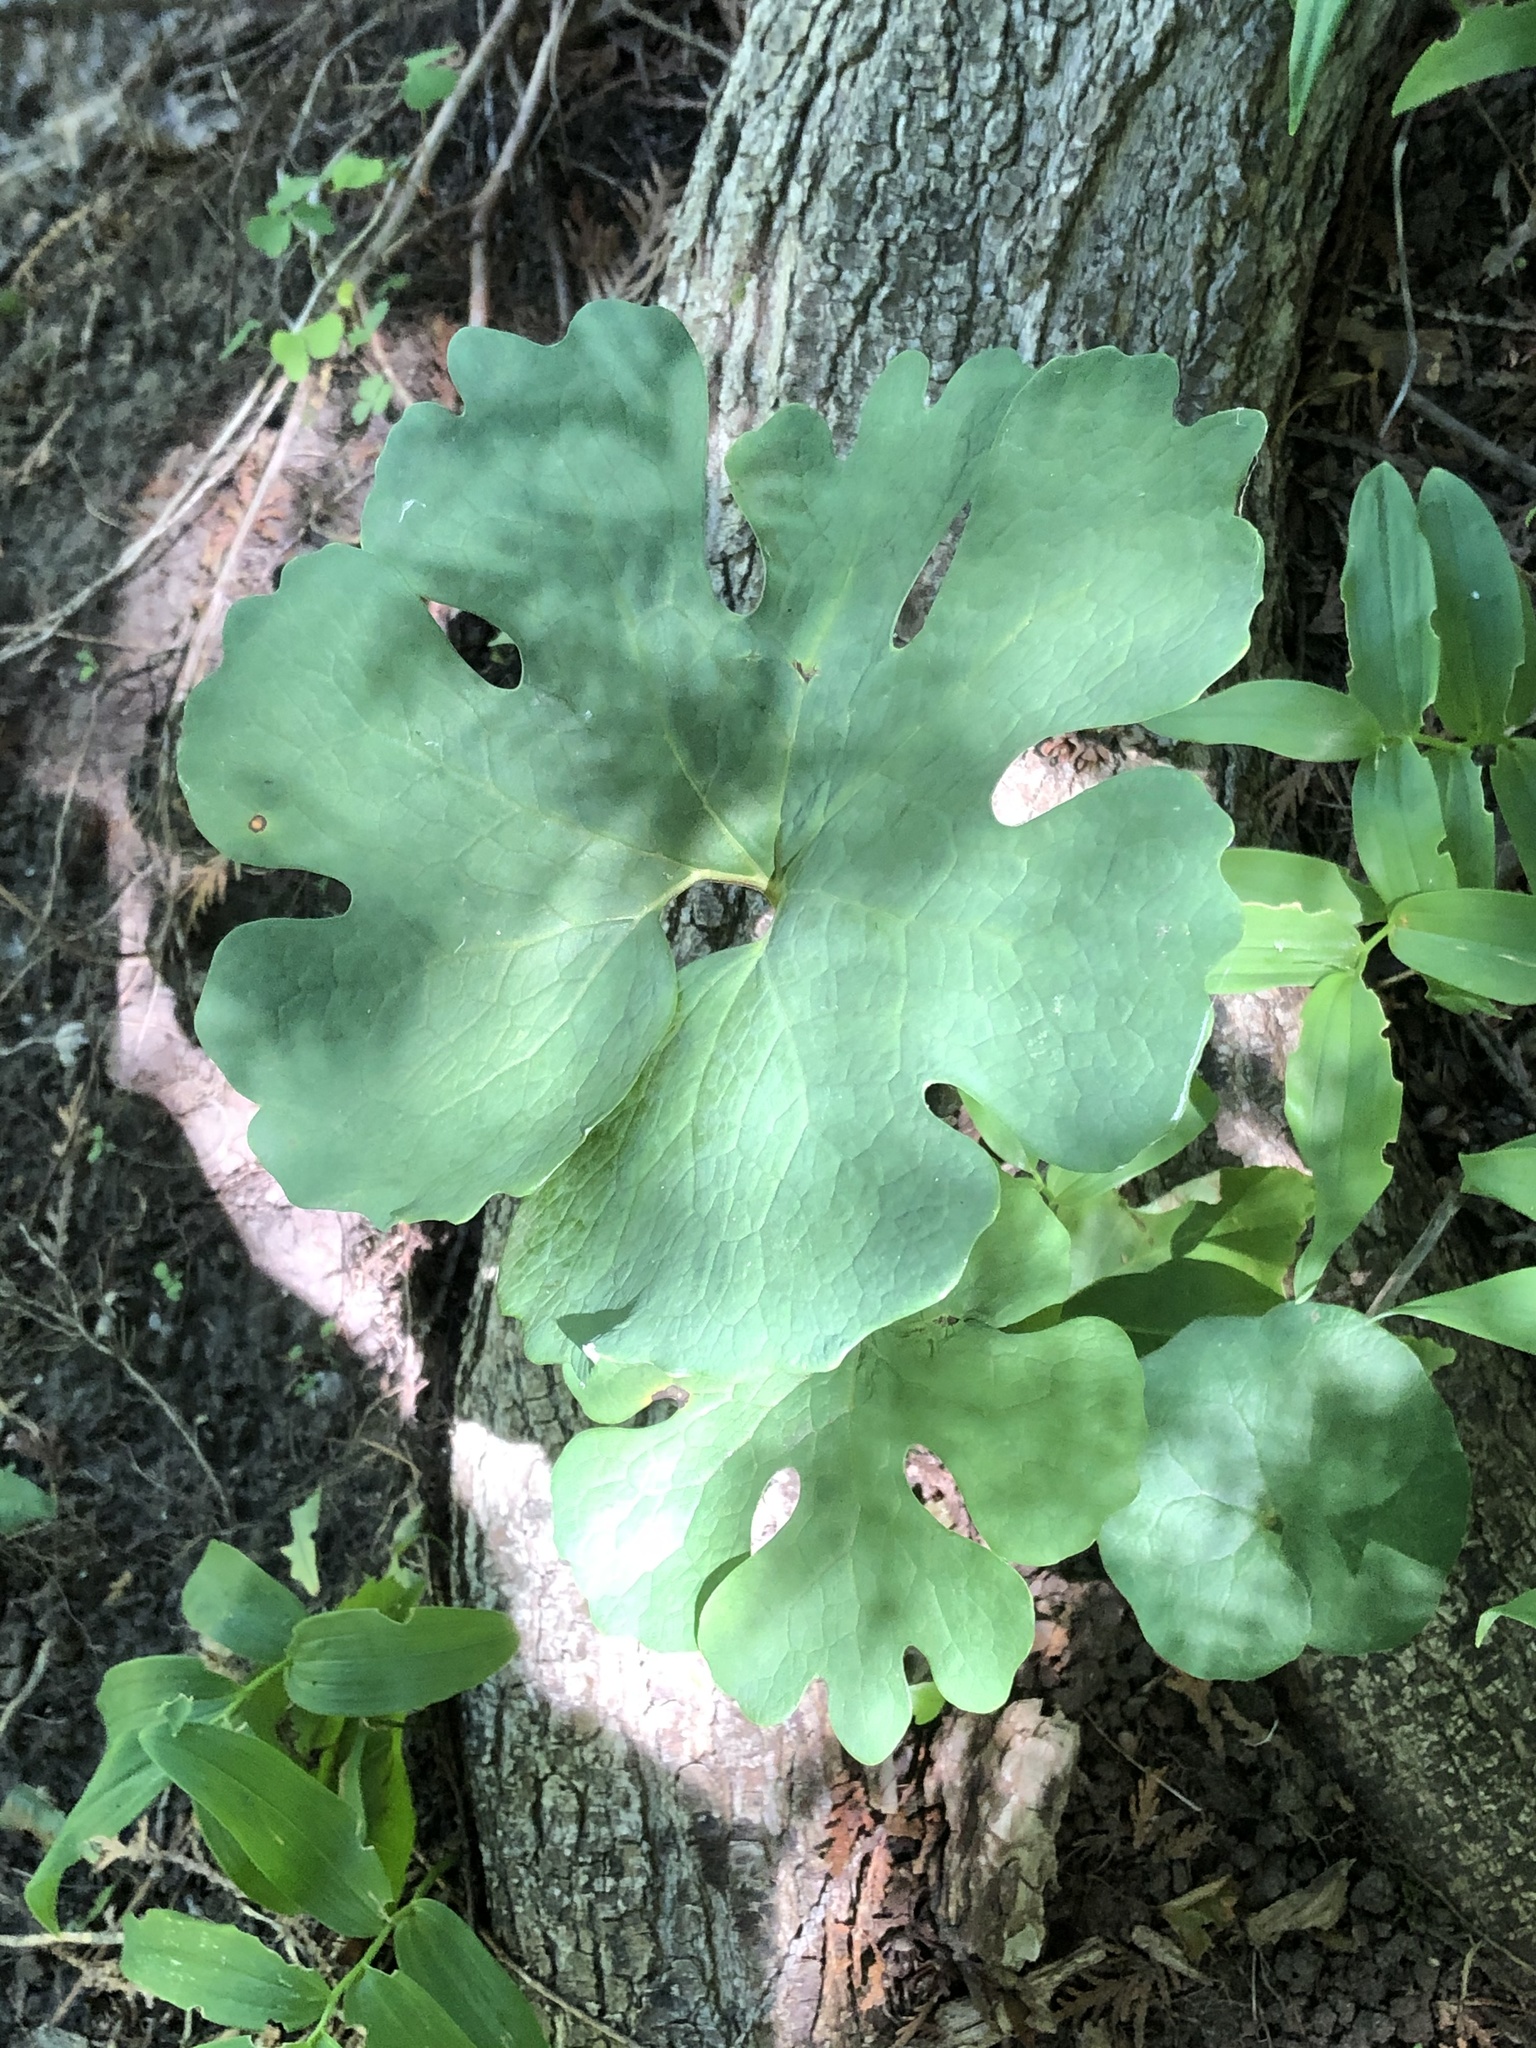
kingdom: Plantae
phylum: Tracheophyta
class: Magnoliopsida
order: Ranunculales
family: Papaveraceae
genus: Sanguinaria
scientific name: Sanguinaria canadensis
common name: Bloodroot
